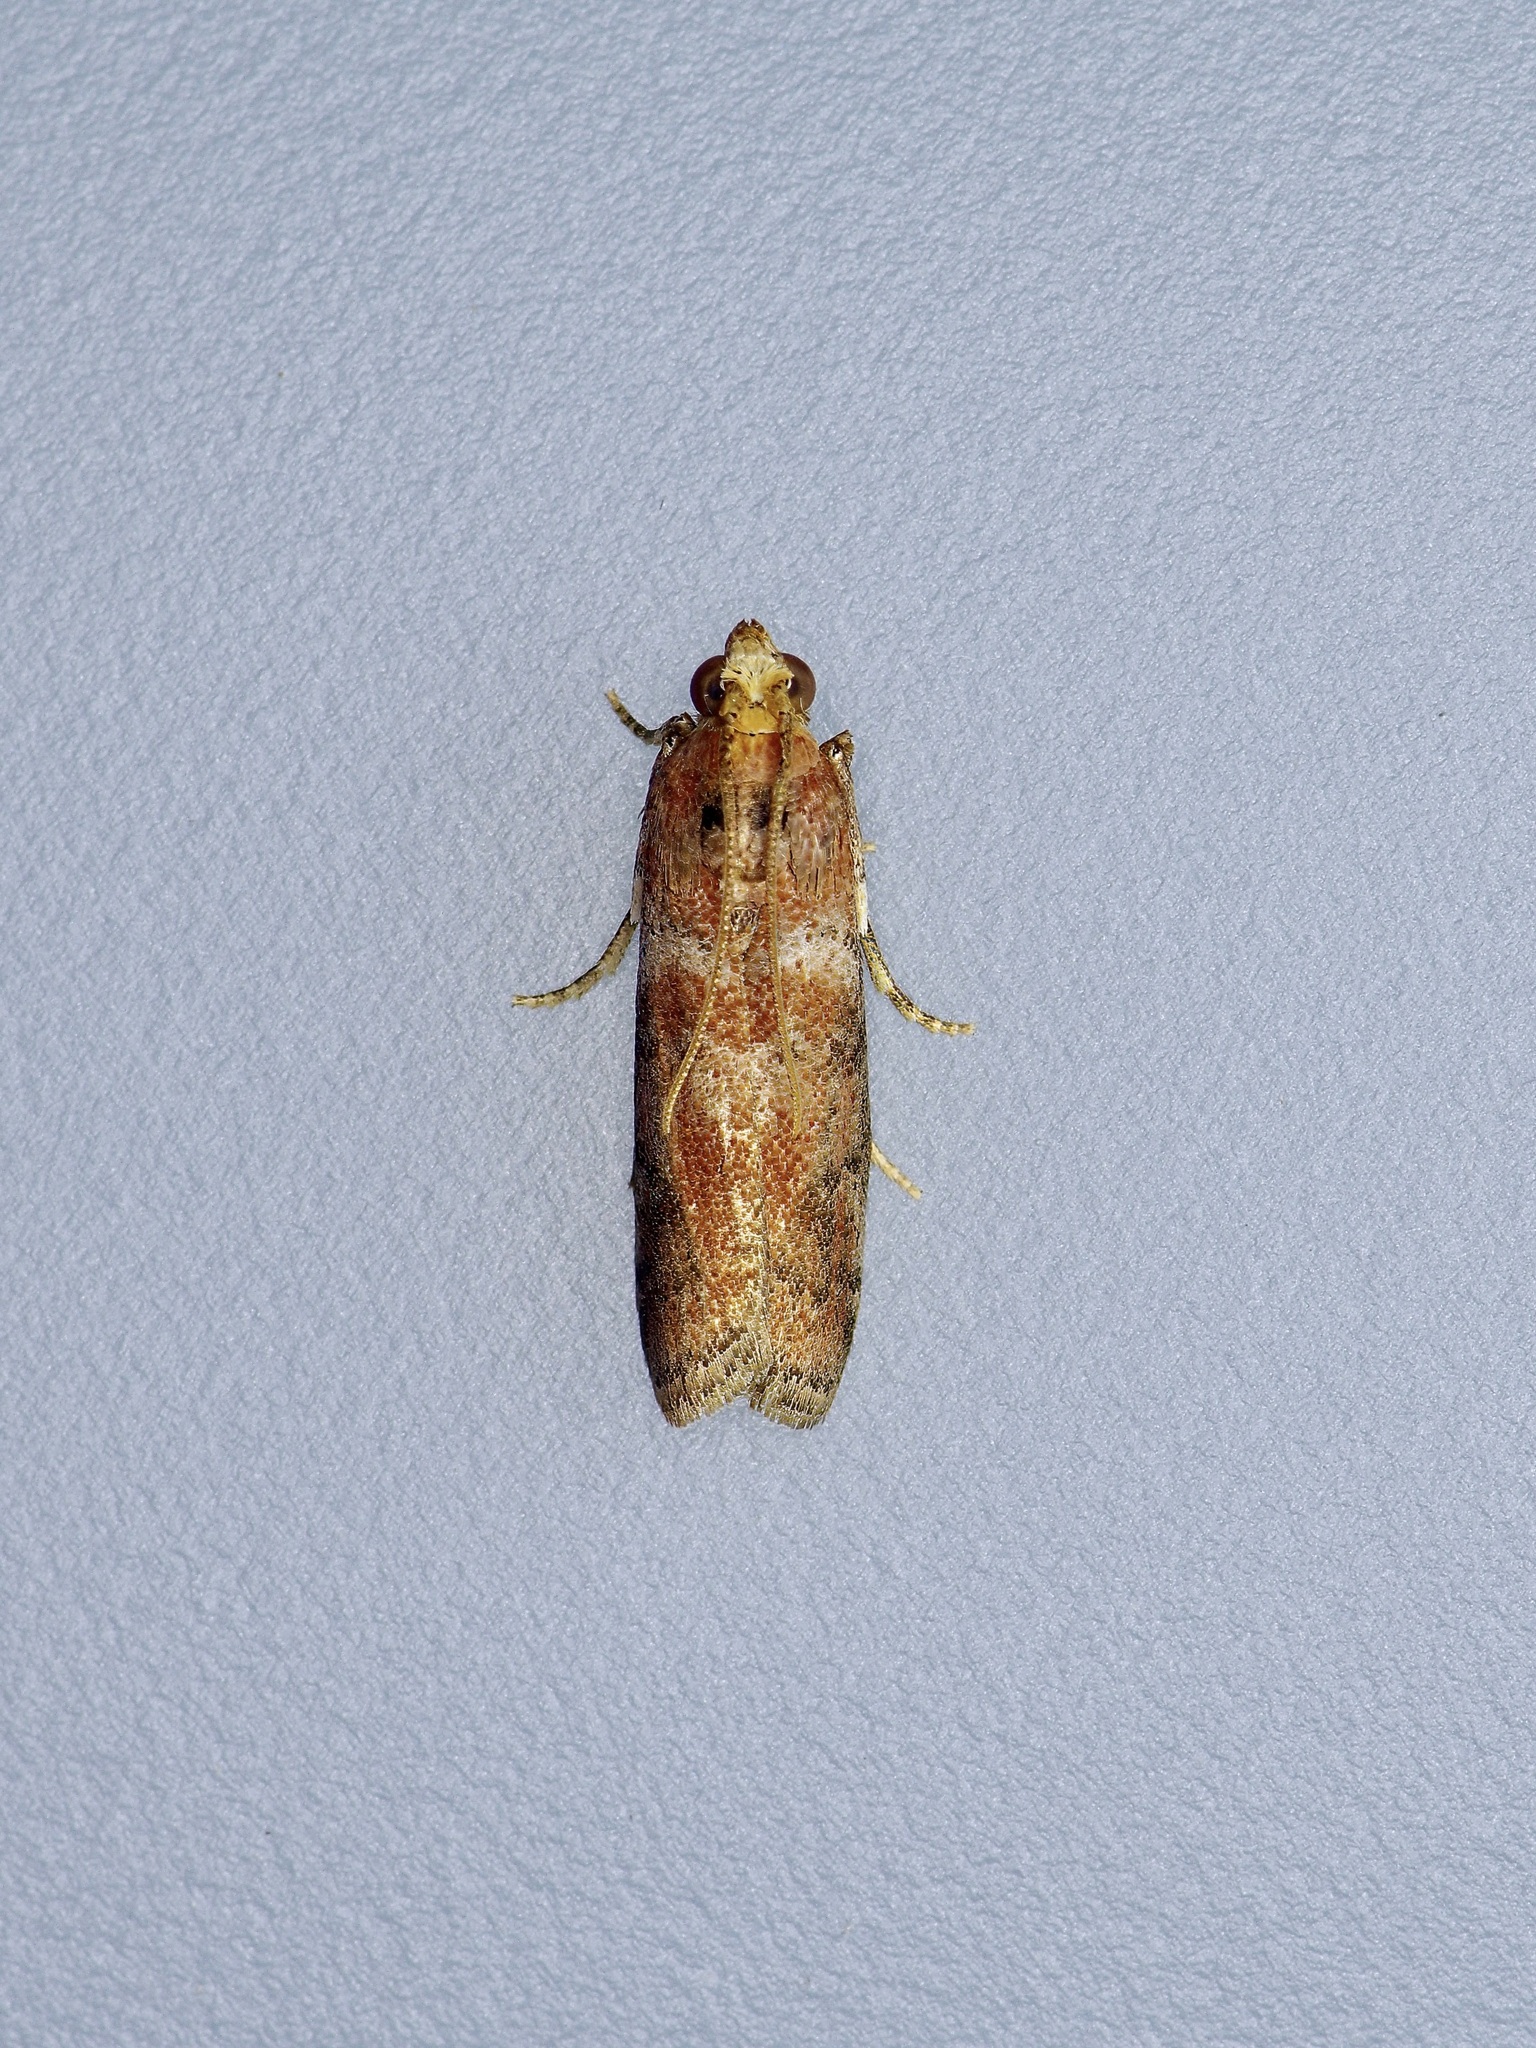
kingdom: Animalia
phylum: Arthropoda
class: Insecta
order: Lepidoptera
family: Pyralidae
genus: Sciota
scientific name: Sciota
